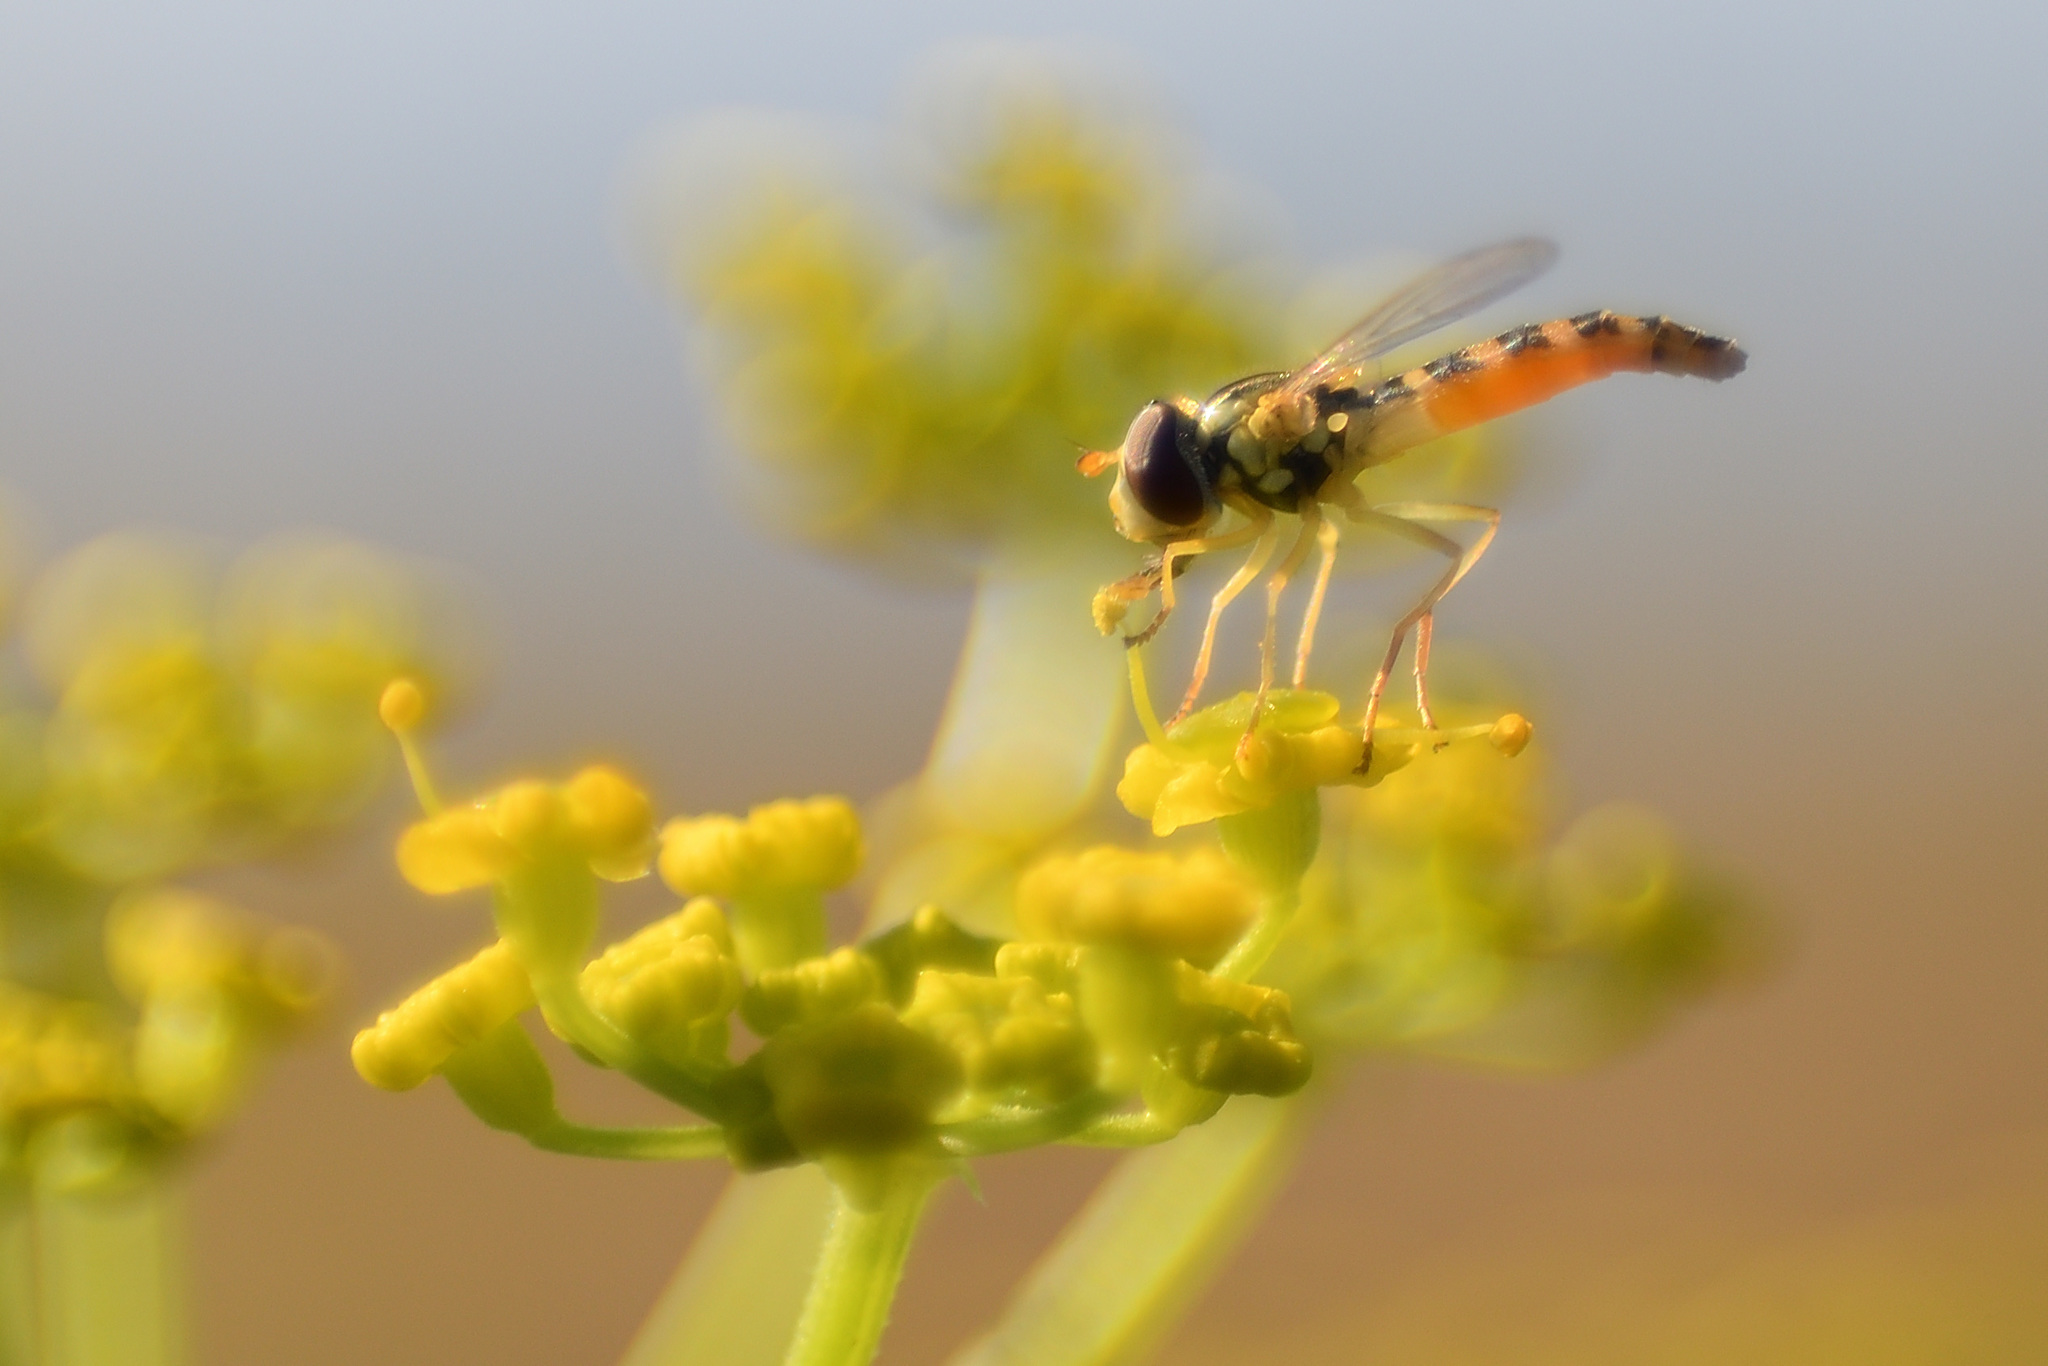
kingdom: Animalia
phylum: Arthropoda
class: Insecta
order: Diptera
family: Syrphidae
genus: Sphaerophoria
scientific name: Sphaerophoria
